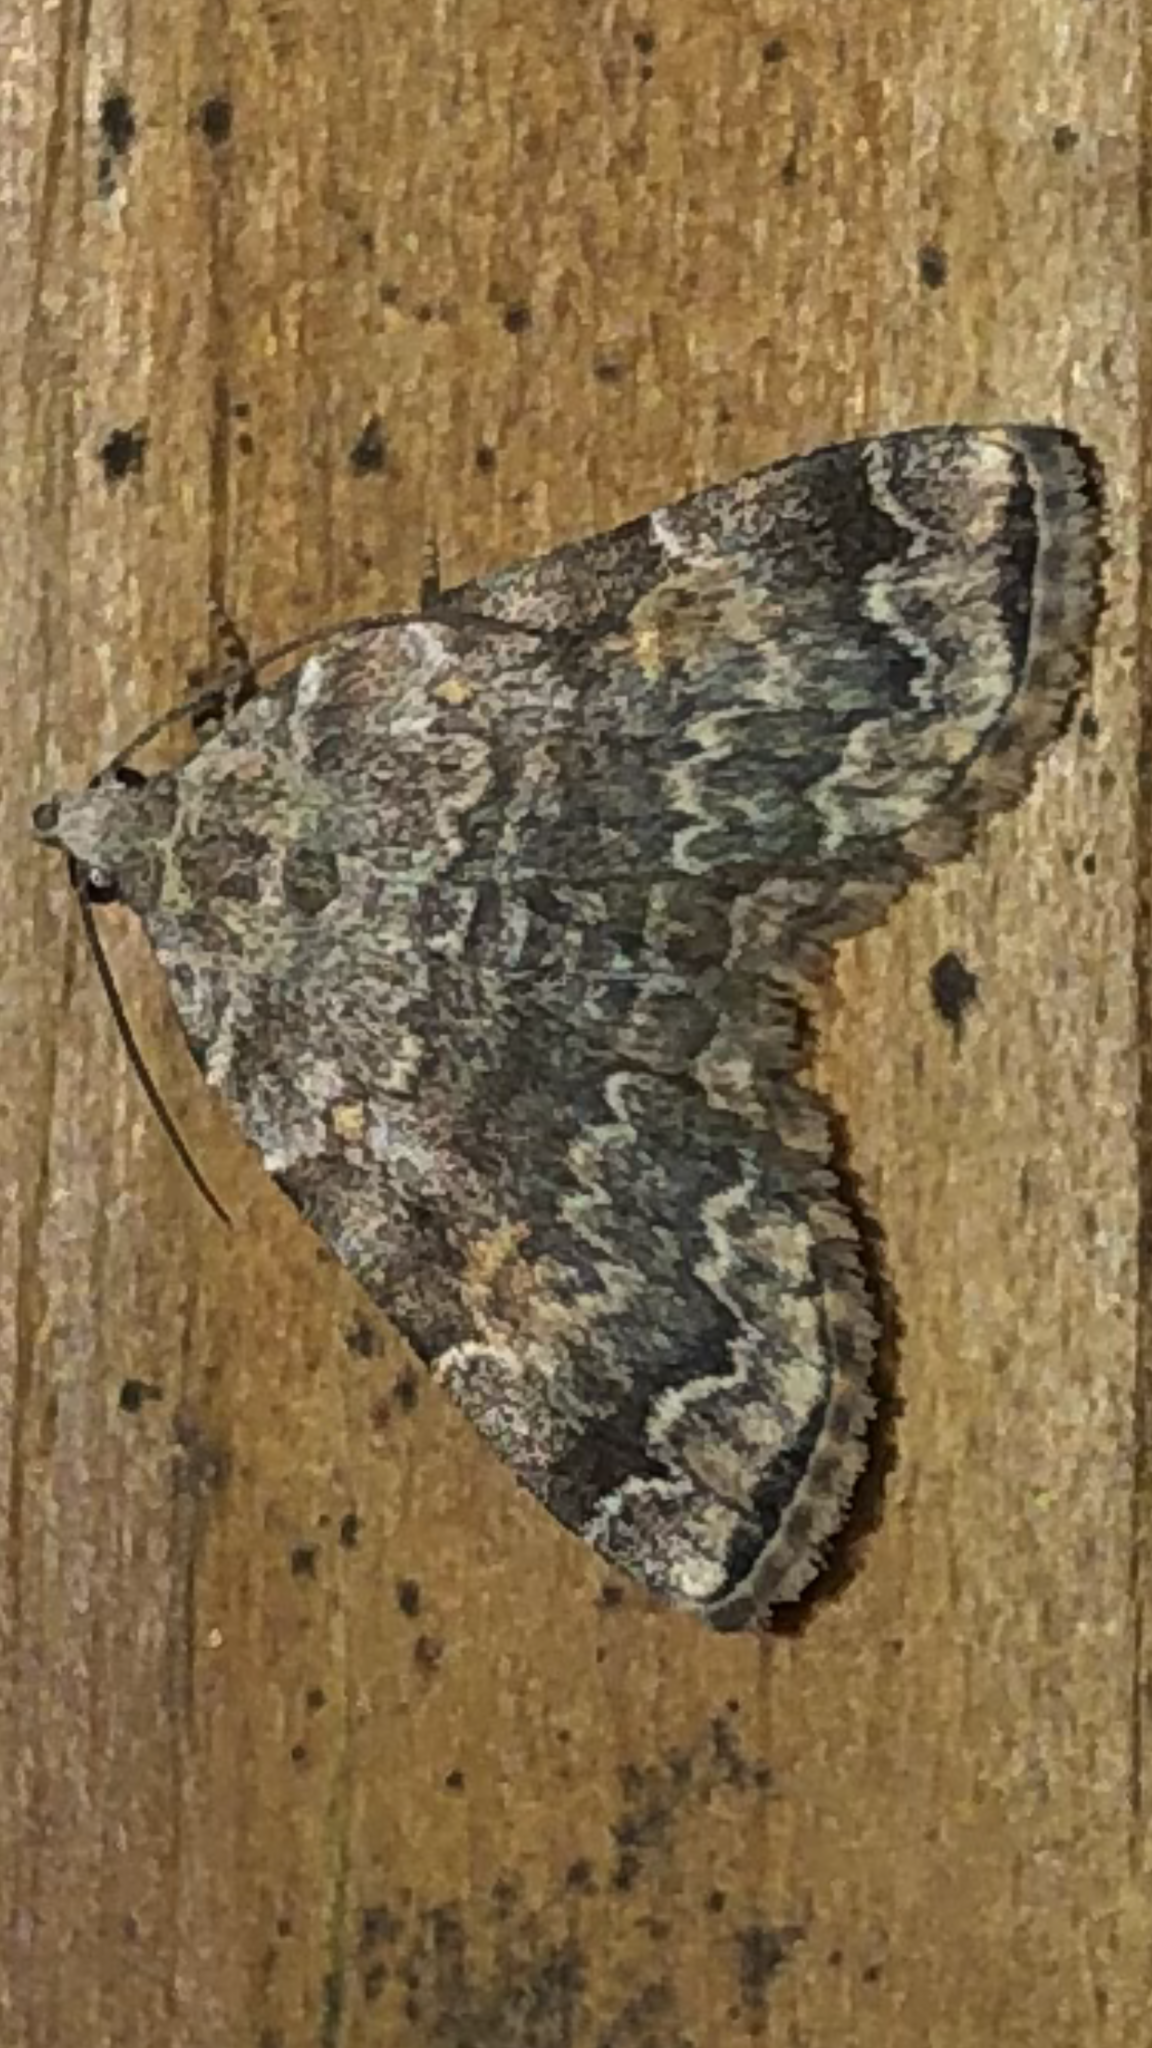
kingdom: Animalia
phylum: Arthropoda
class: Insecta
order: Lepidoptera
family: Erebidae
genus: Idia
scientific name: Idia americalis
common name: American idia moth
